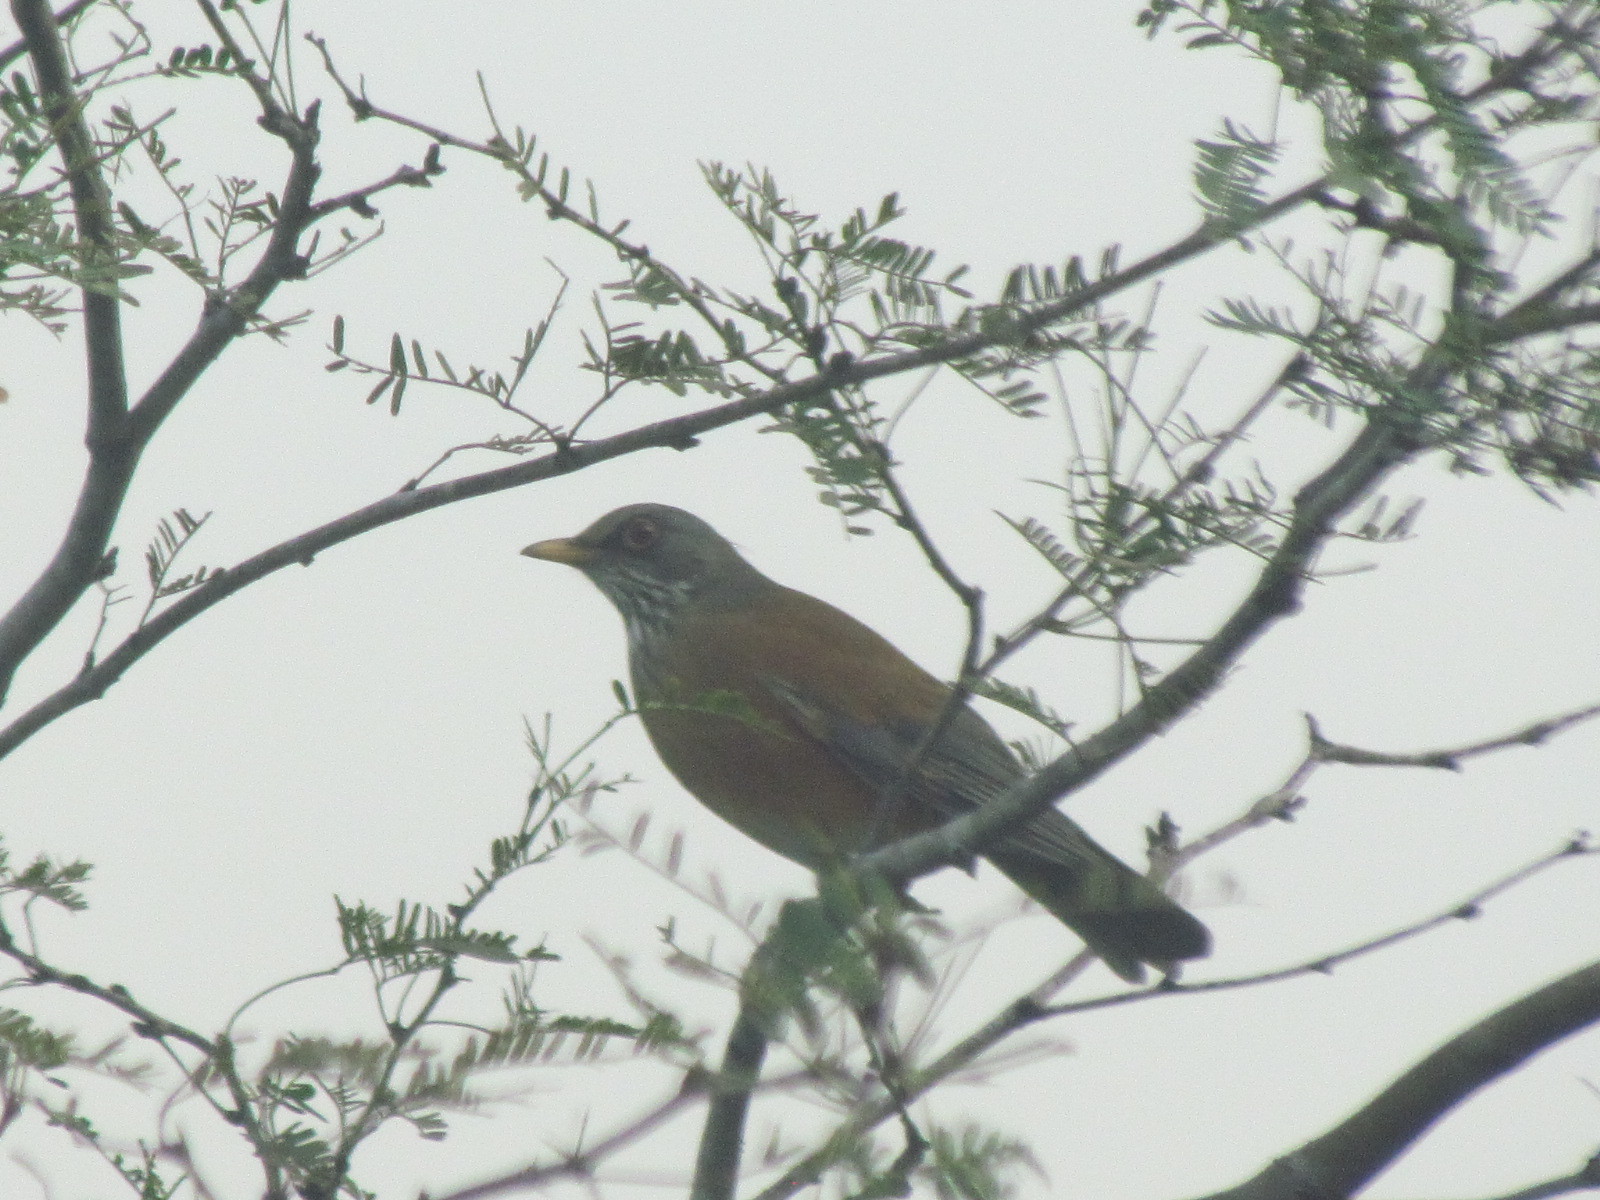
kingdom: Animalia
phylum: Chordata
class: Aves
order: Passeriformes
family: Turdidae
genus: Turdus
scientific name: Turdus rufopalliatus
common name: Rufous-backed robin
